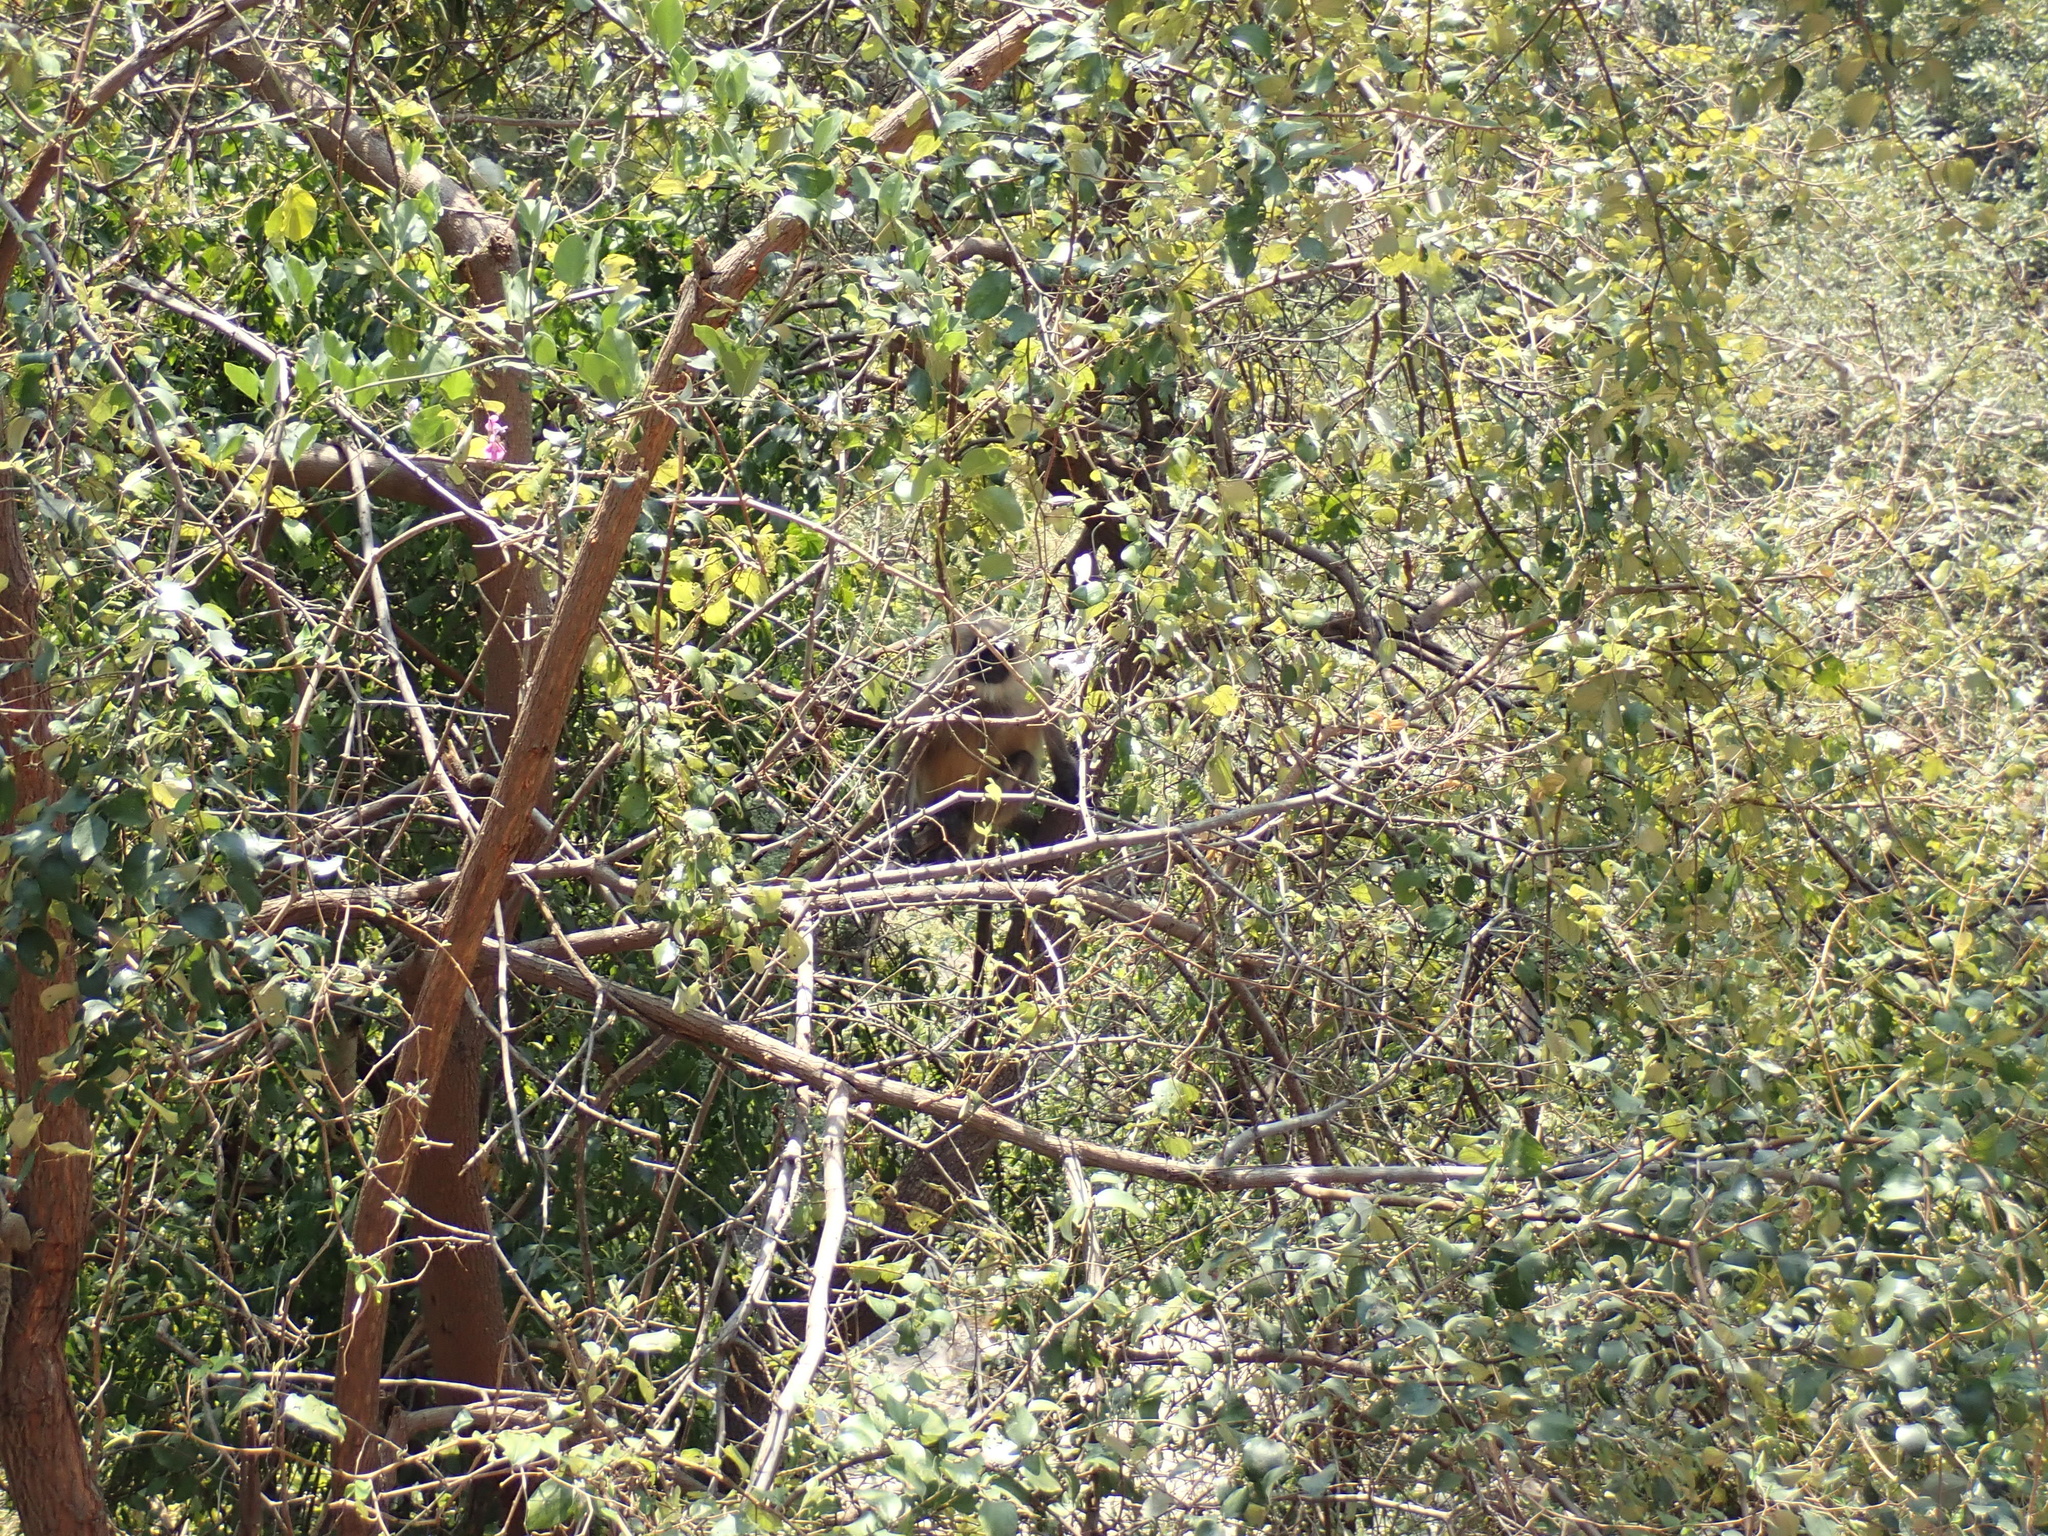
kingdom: Animalia
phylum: Chordata
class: Mammalia
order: Primates
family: Cercopithecidae
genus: Semnopithecus
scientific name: Semnopithecus hypoleucos
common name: Black-footed gray langur
